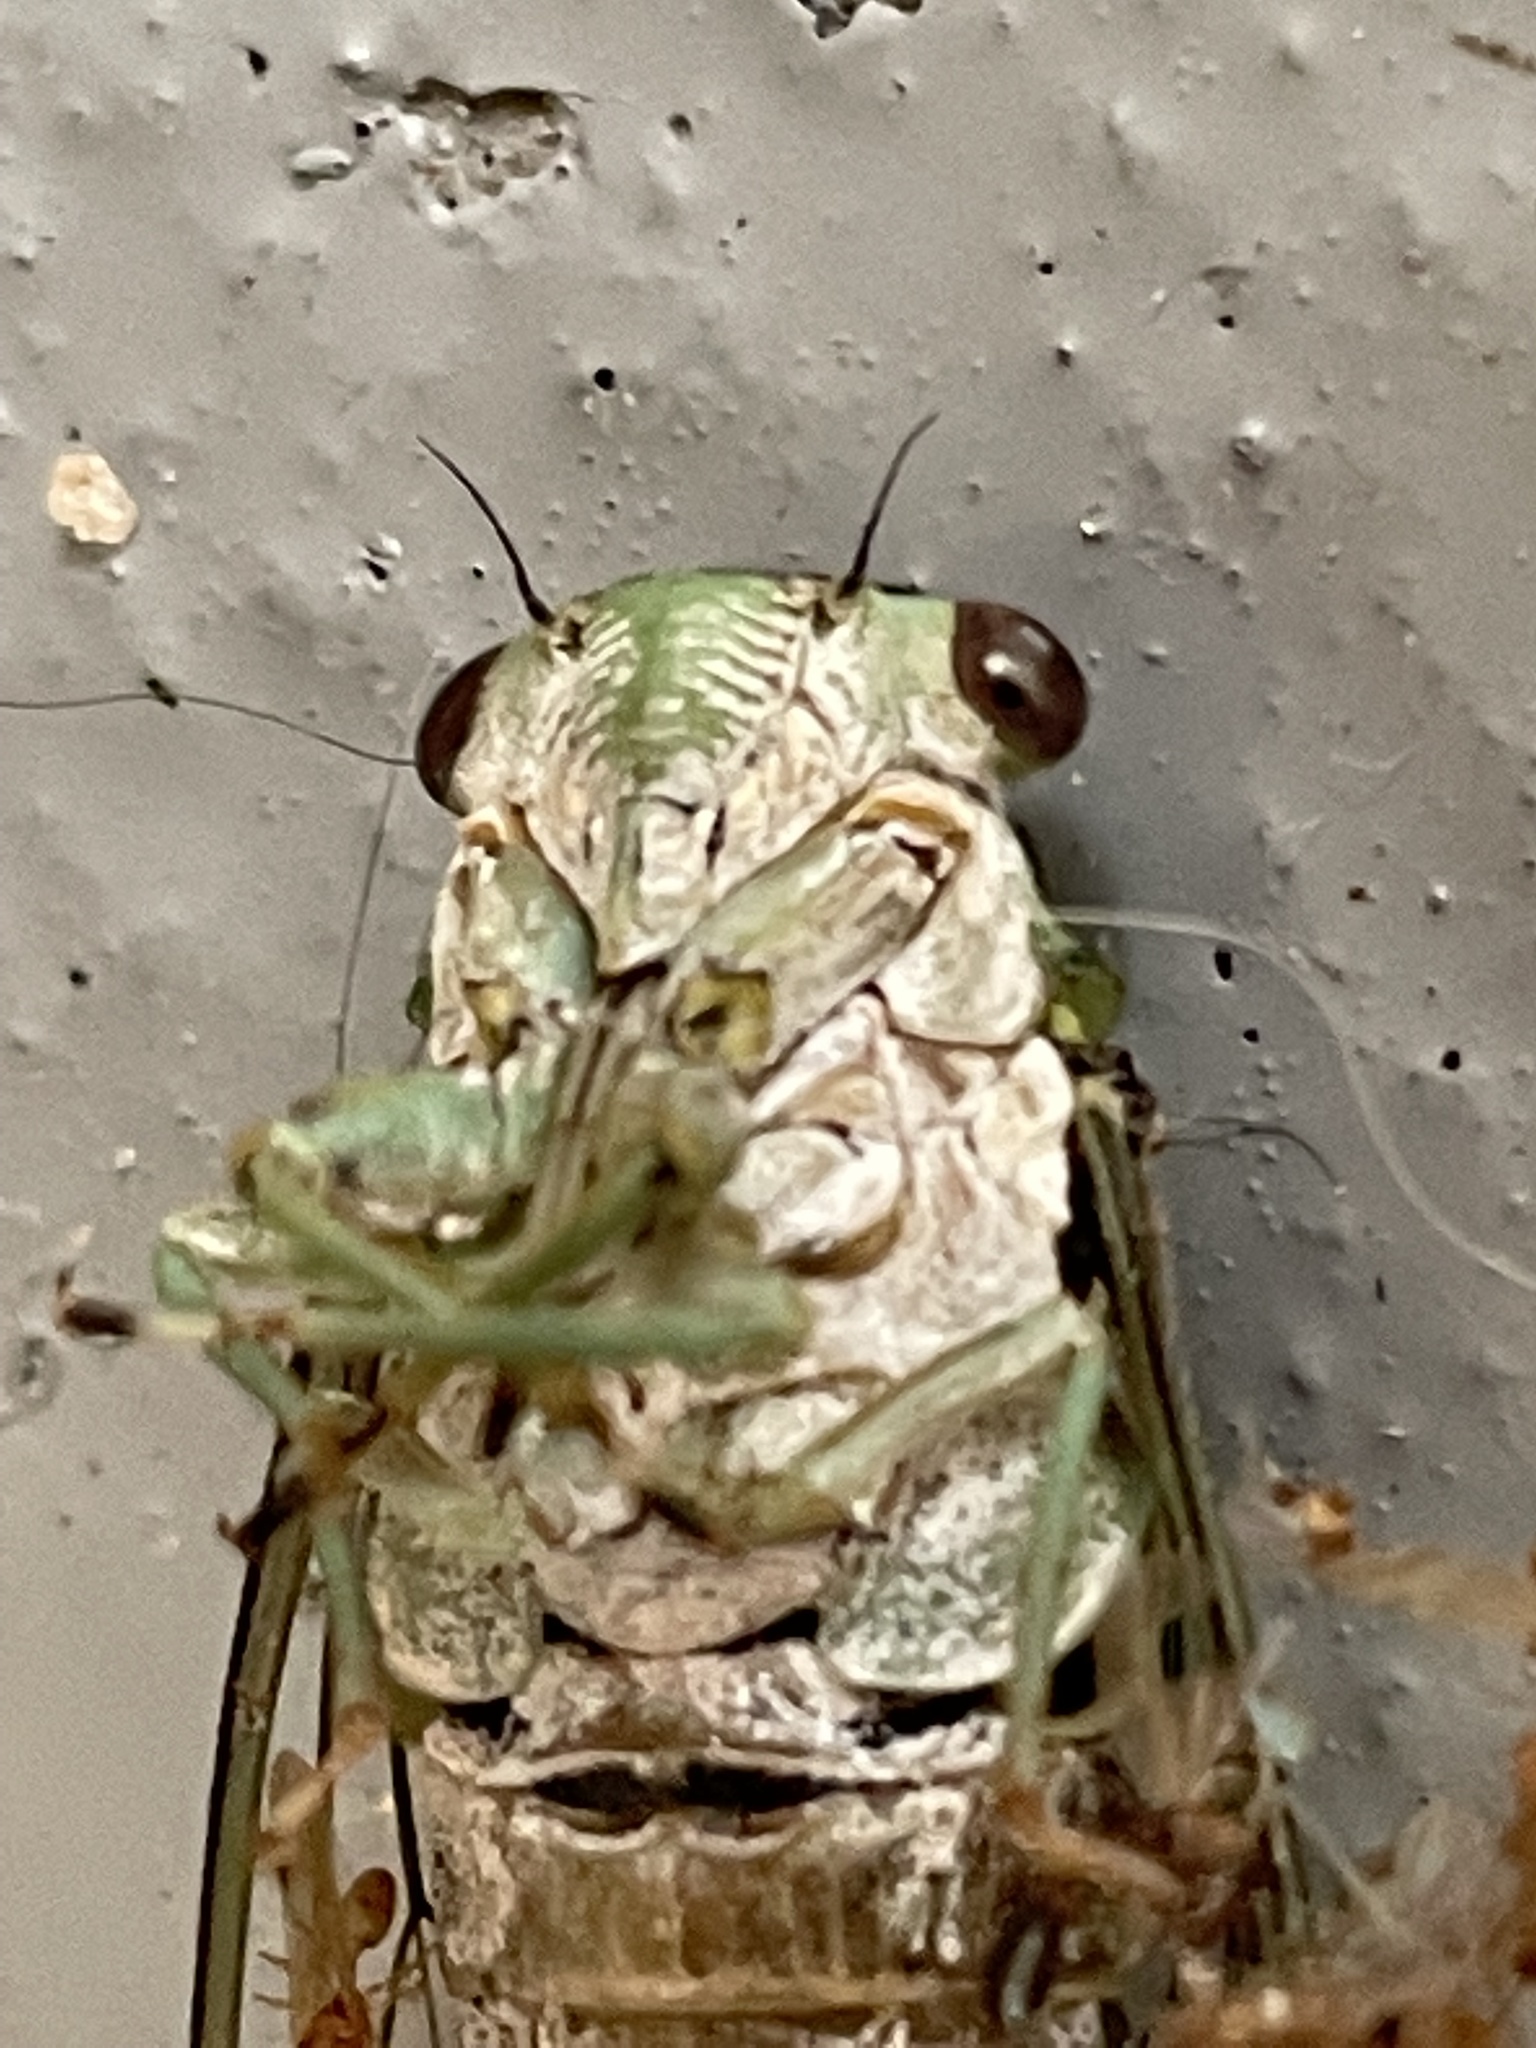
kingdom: Animalia
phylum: Arthropoda
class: Insecta
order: Hemiptera
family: Cicadidae
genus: Neocicada
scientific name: Neocicada hieroglyphica
